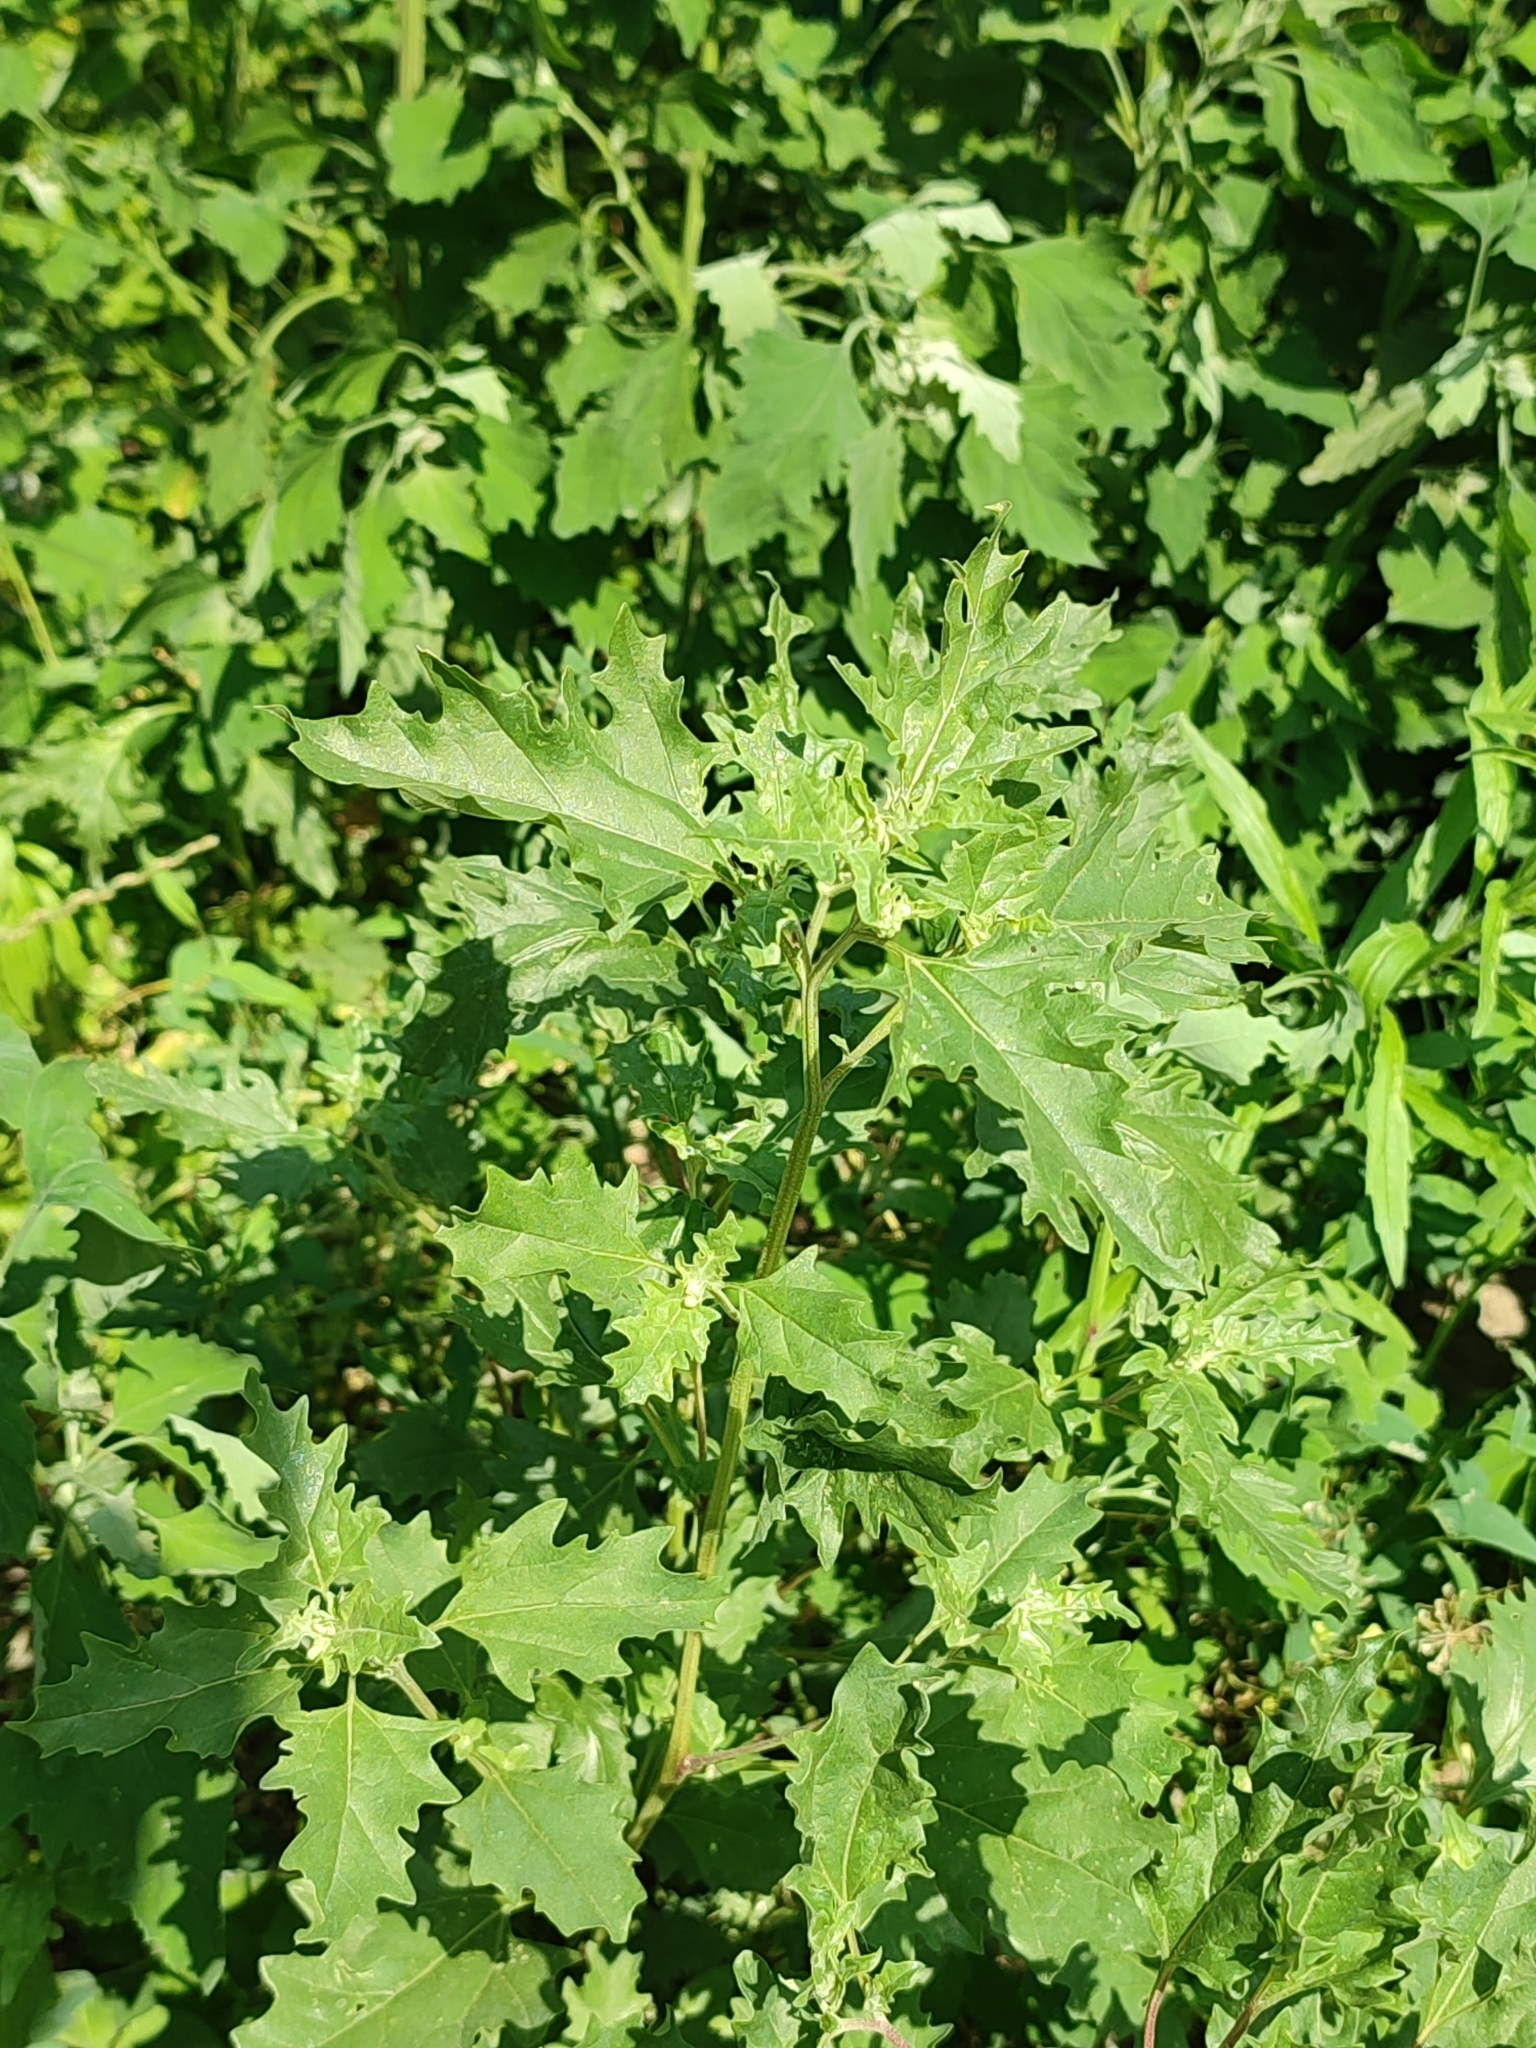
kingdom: Plantae
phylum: Tracheophyta
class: Magnoliopsida
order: Caryophyllales
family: Amaranthaceae
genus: Atriplex
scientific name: Atriplex tatarica
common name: Tatarian orache
